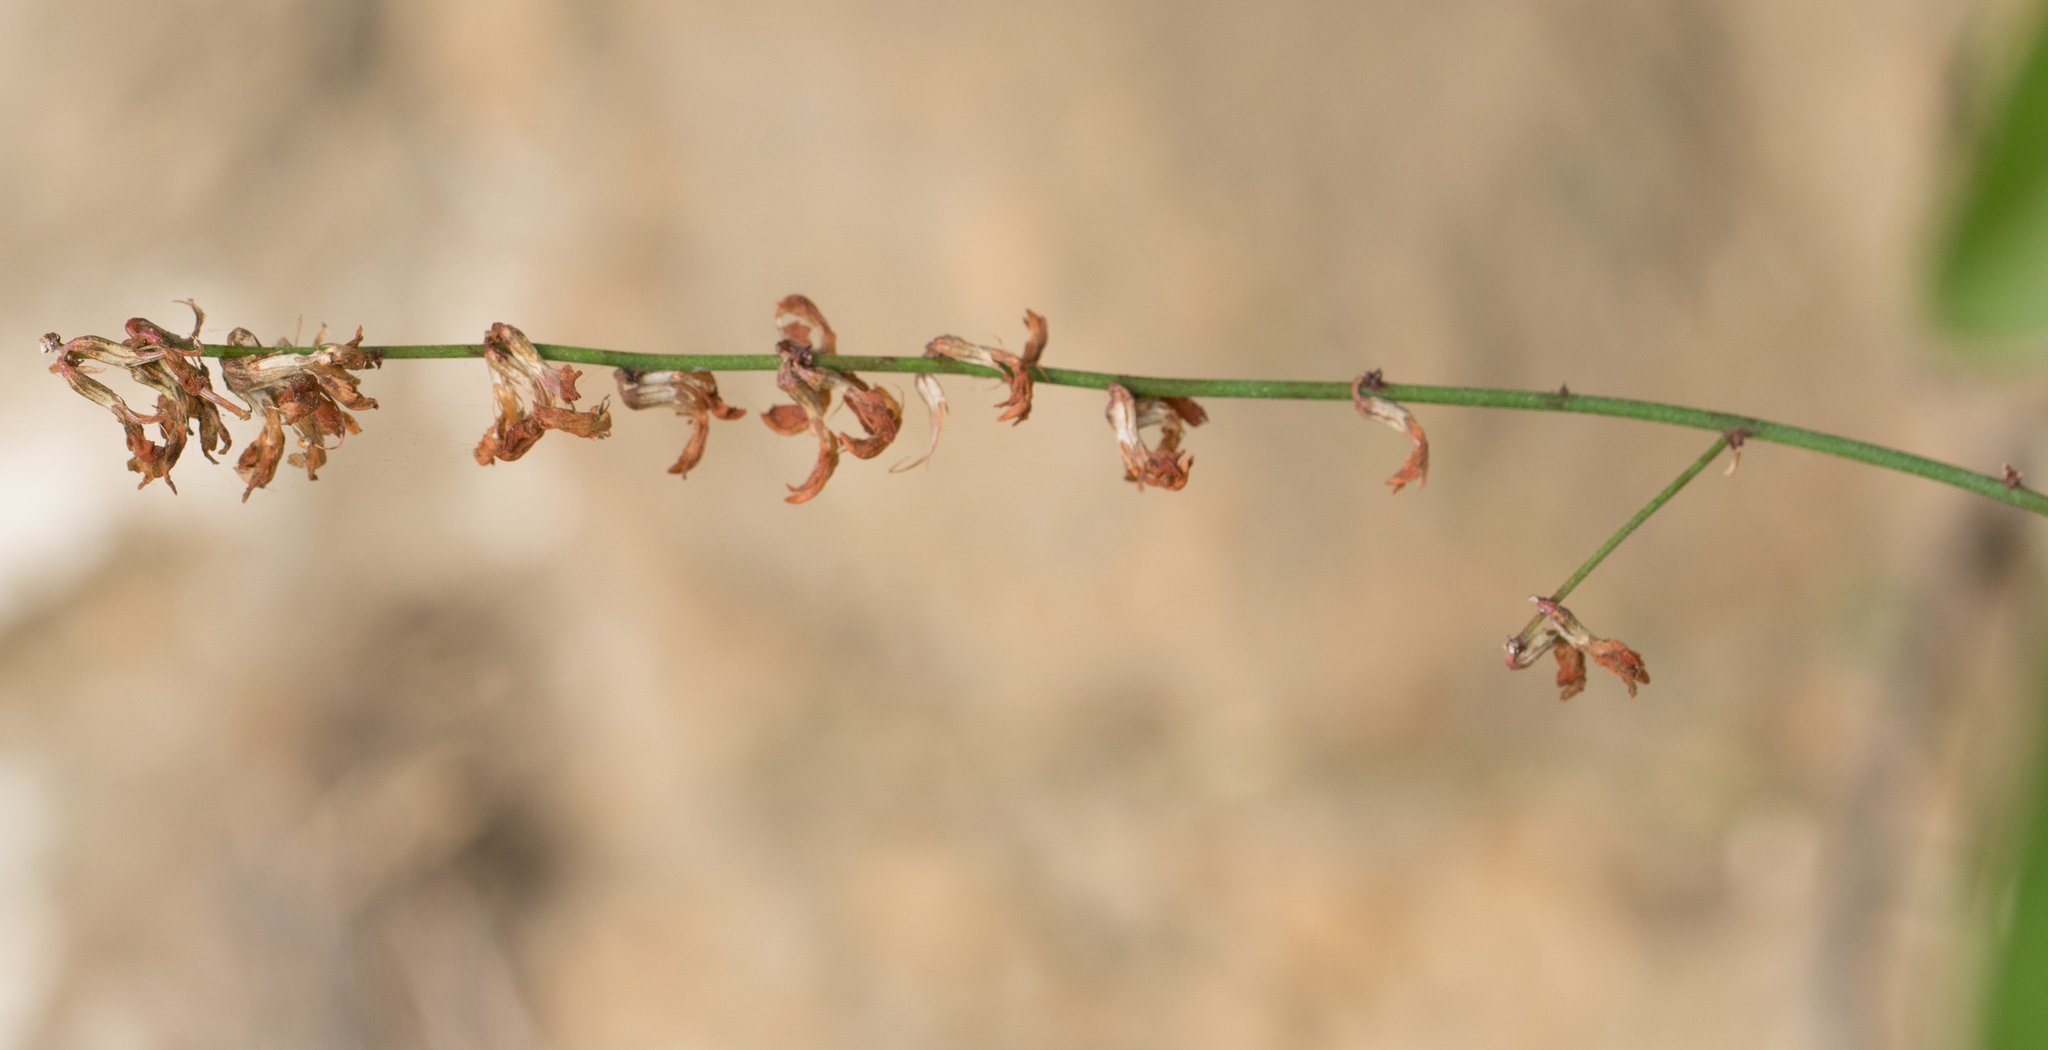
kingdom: Plantae
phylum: Tracheophyta
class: Magnoliopsida
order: Fabales
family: Fabaceae
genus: Acmispon
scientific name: Acmispon glaber
